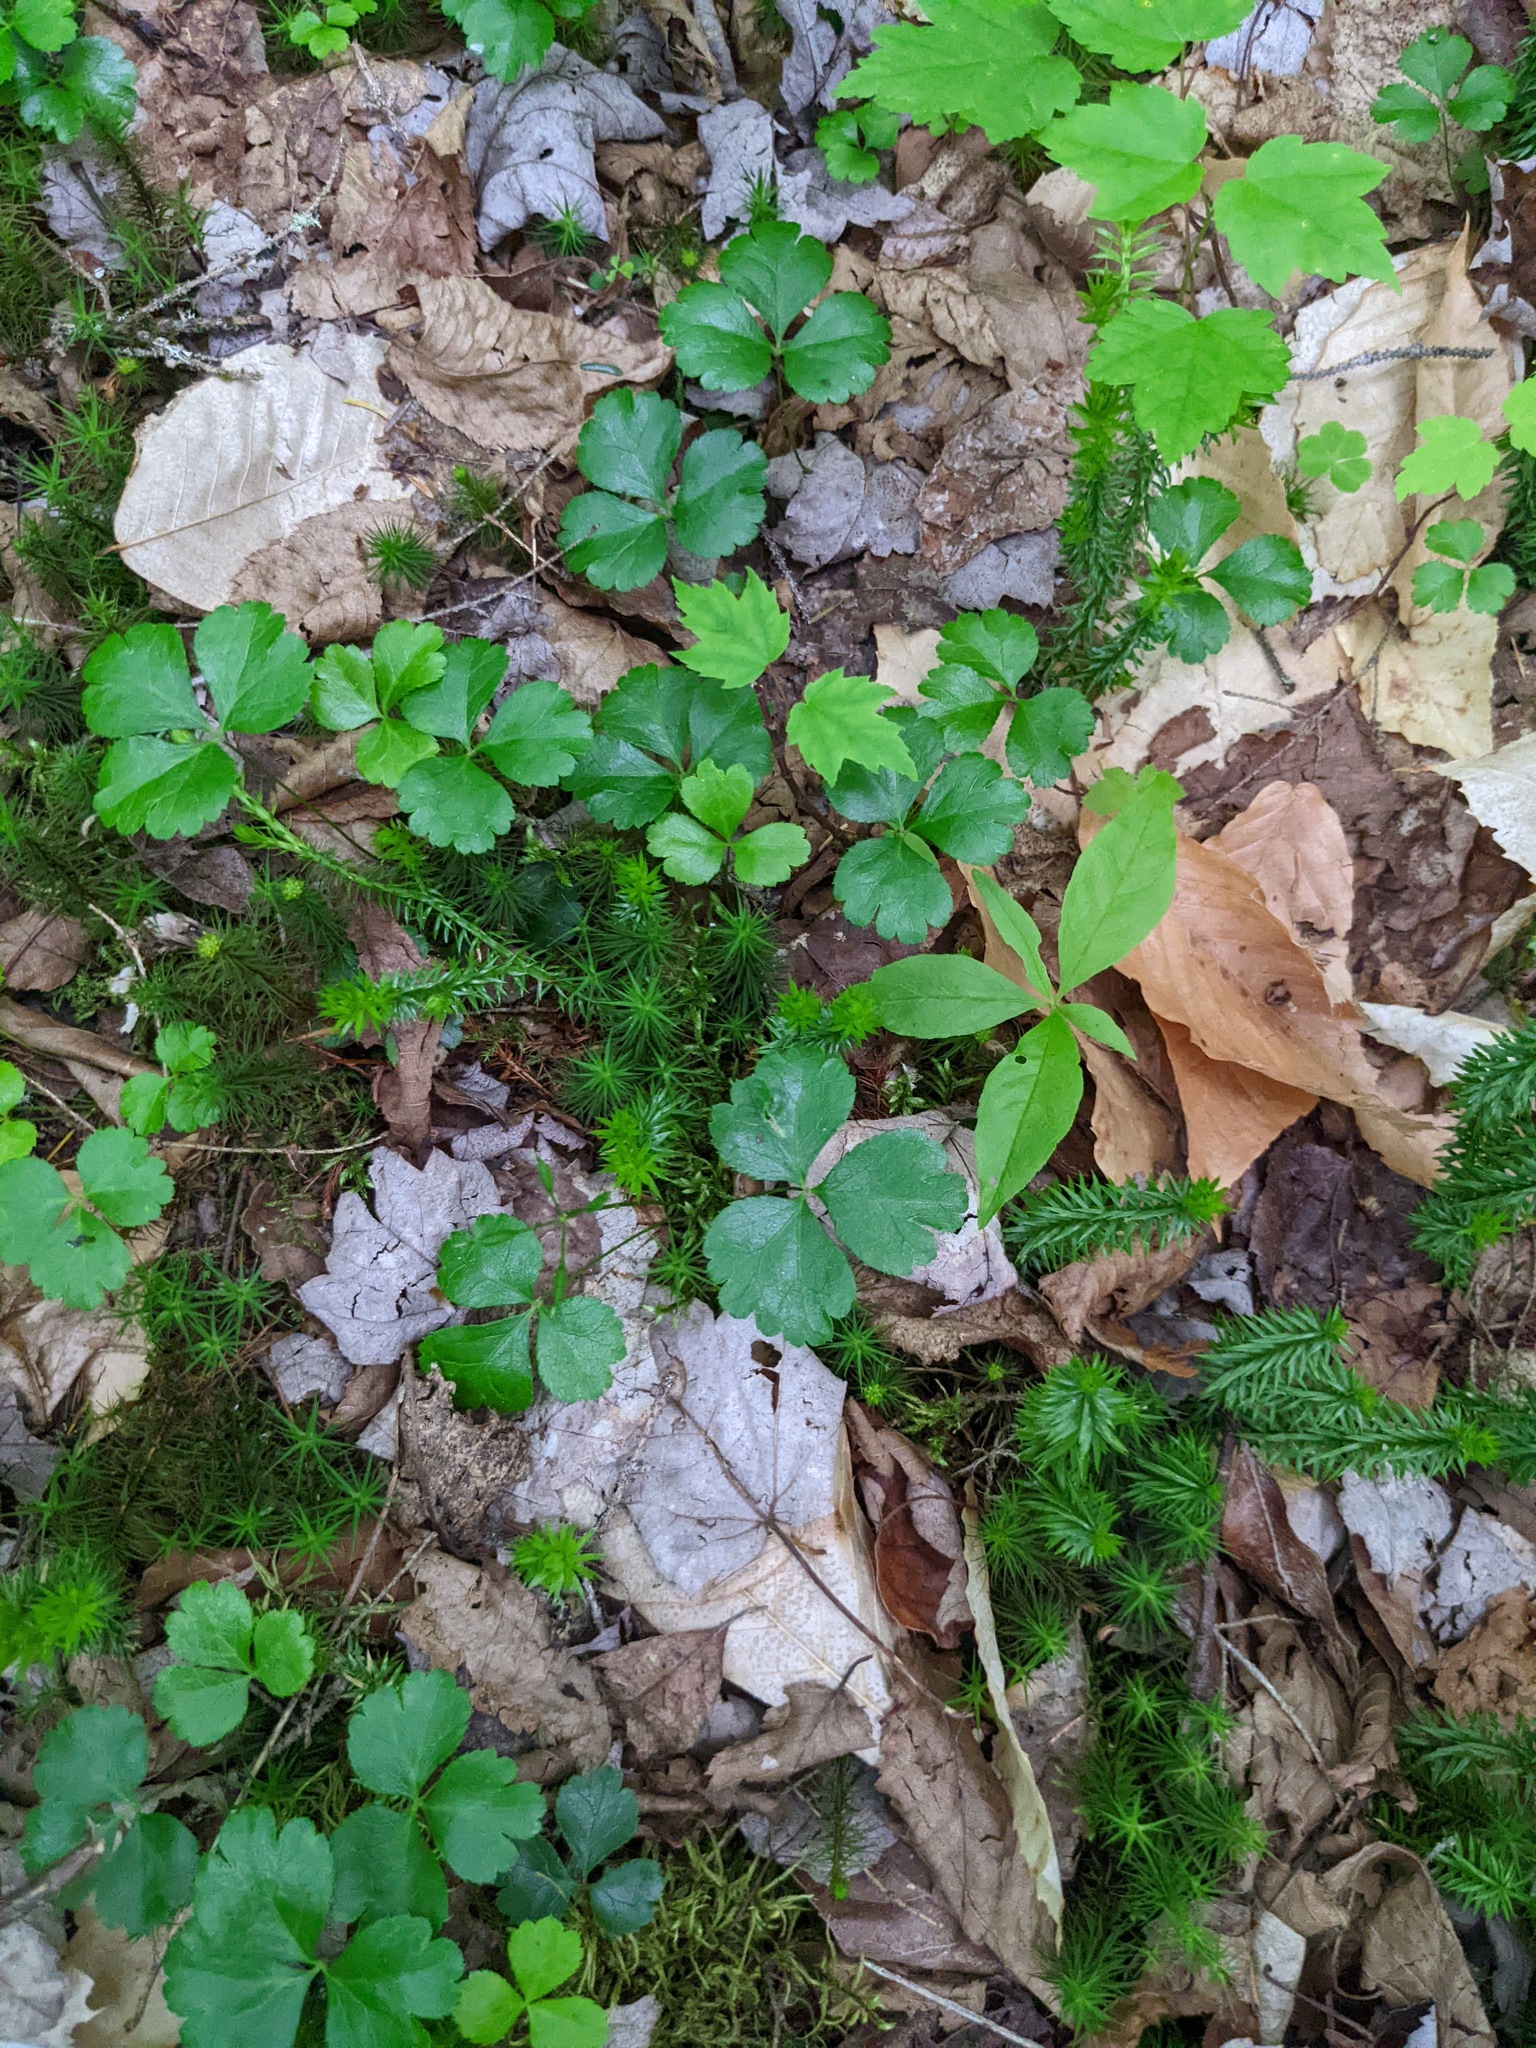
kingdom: Plantae
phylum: Tracheophyta
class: Magnoliopsida
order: Ranunculales
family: Ranunculaceae
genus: Coptis
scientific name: Coptis trifolia
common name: Canker-root
